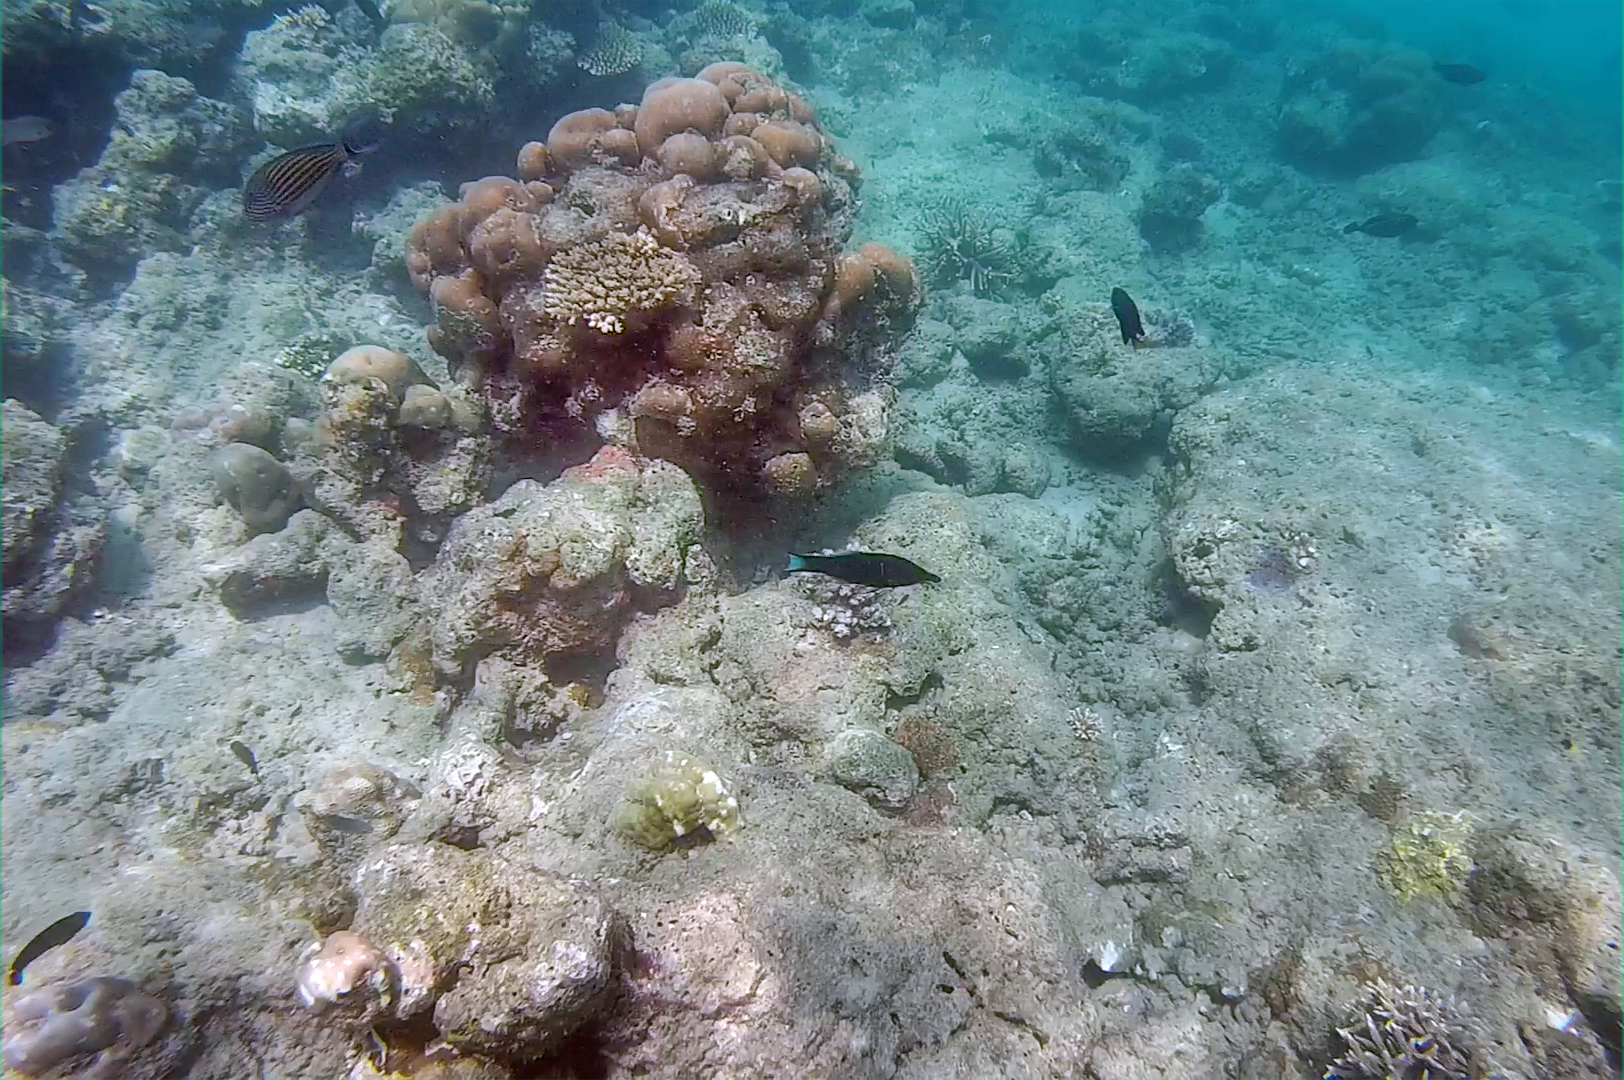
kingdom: Animalia
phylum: Chordata
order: Perciformes
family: Labridae
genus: Gomphosus
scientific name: Gomphosus caeruleus
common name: Bird wrasse
